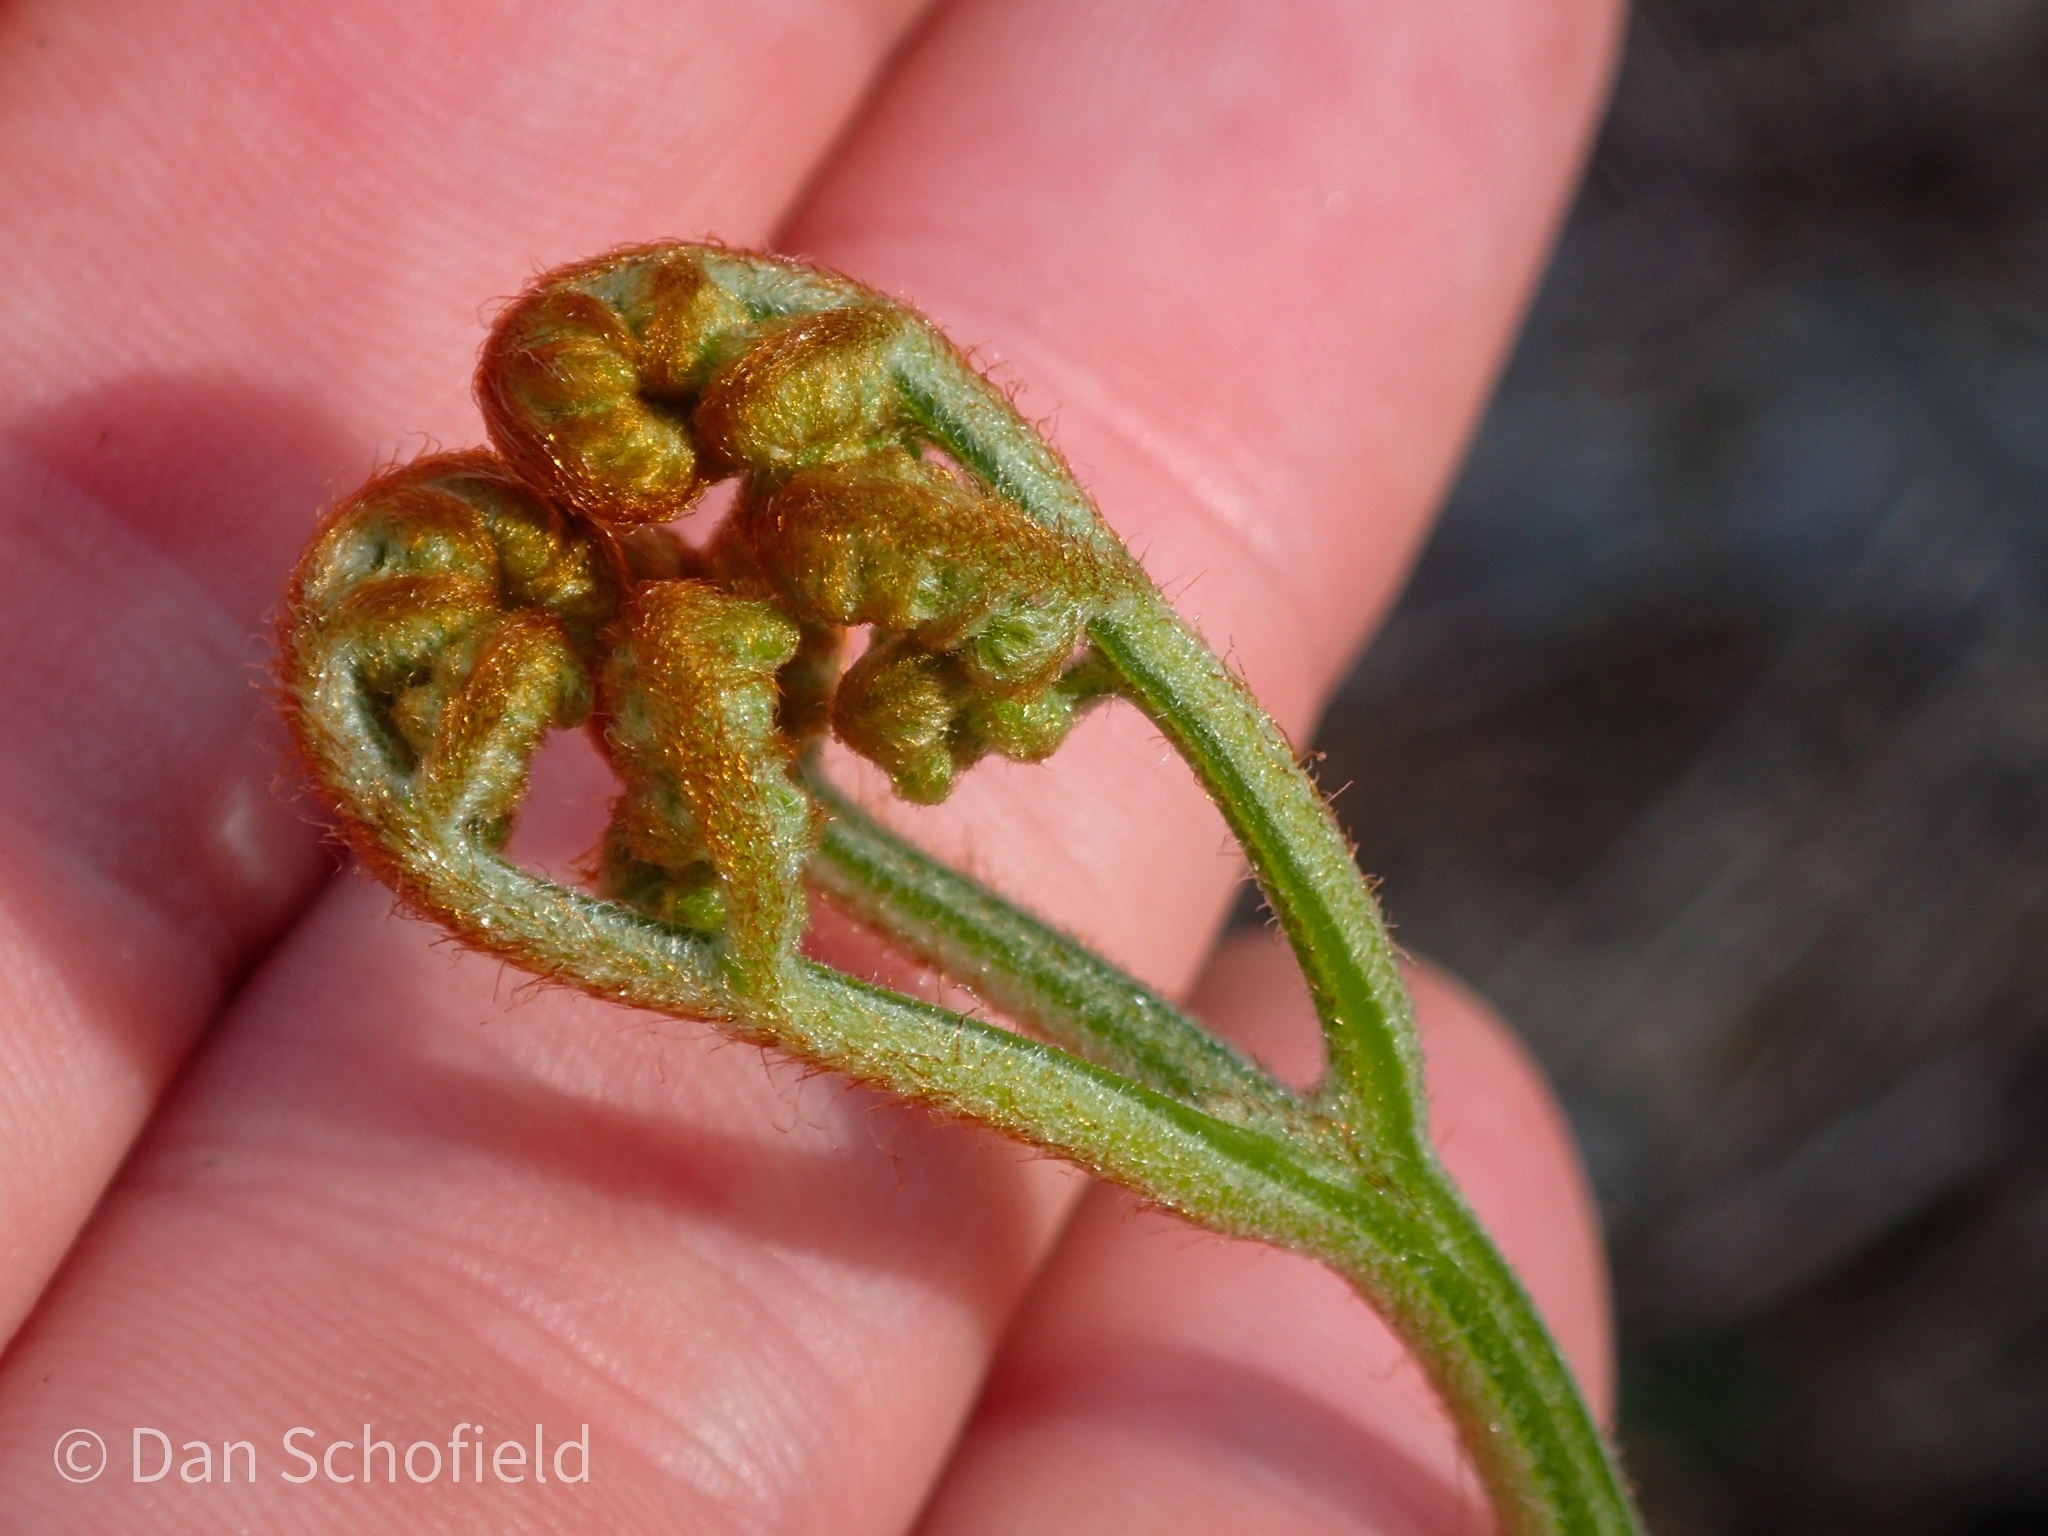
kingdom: Plantae
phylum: Tracheophyta
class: Polypodiopsida
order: Polypodiales
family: Dennstaedtiaceae
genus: Pteridium
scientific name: Pteridium aquilinum
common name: Bracken
